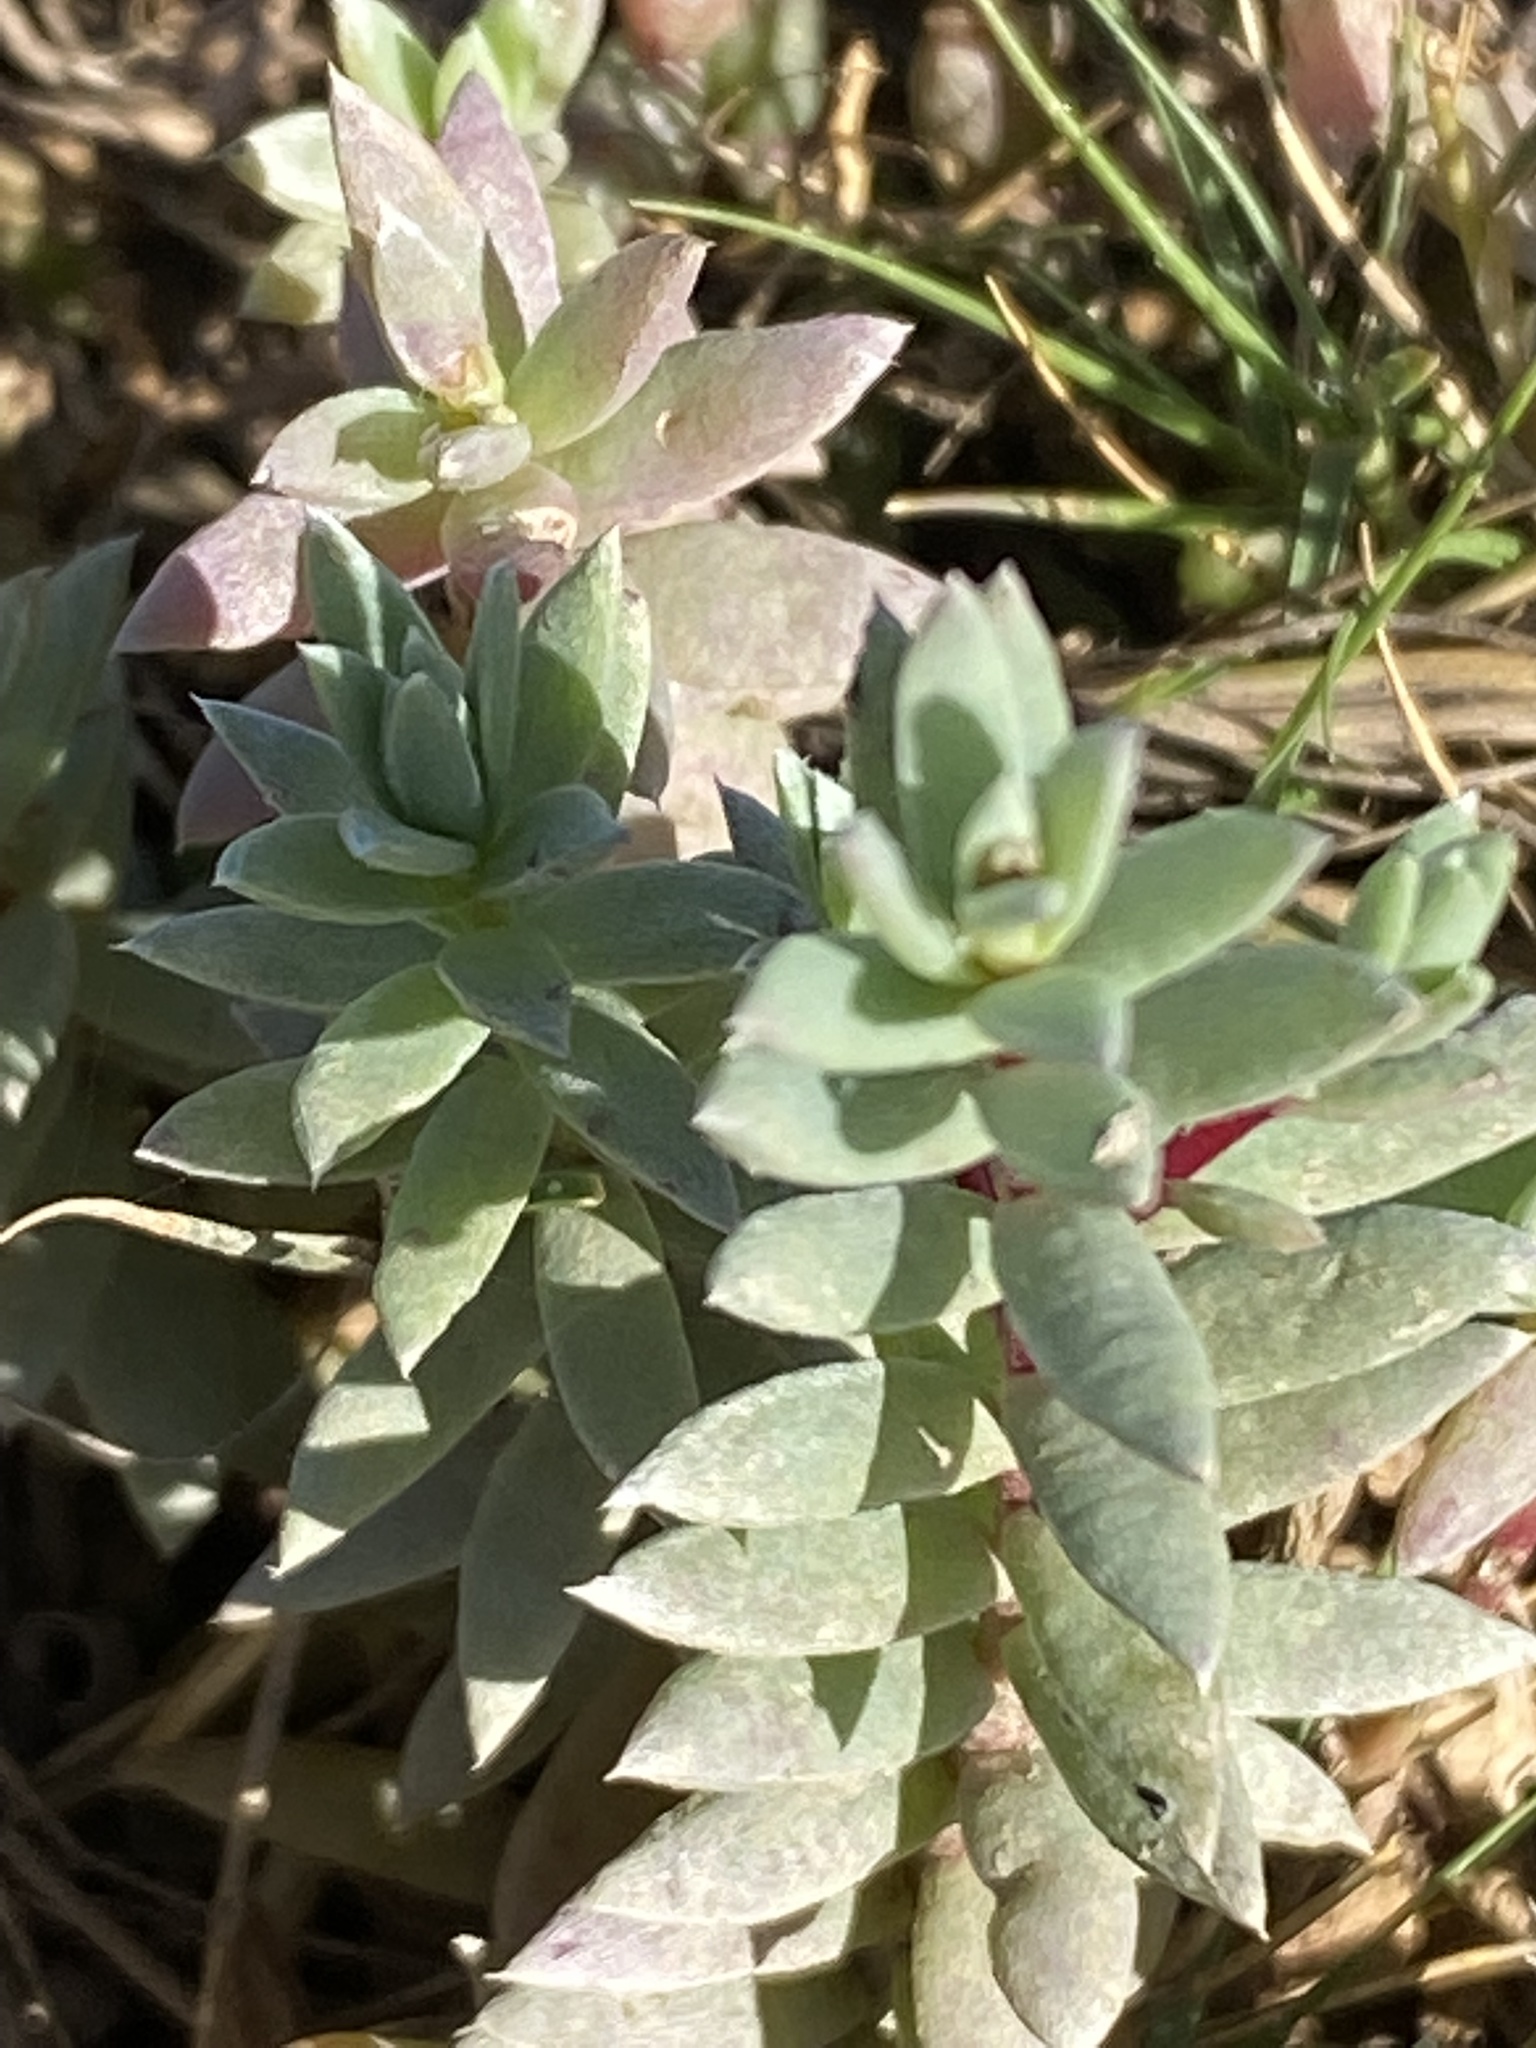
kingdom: Plantae
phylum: Tracheophyta
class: Magnoliopsida
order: Caryophyllales
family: Amaranthaceae
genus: Chenolea
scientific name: Chenolea diffusa
